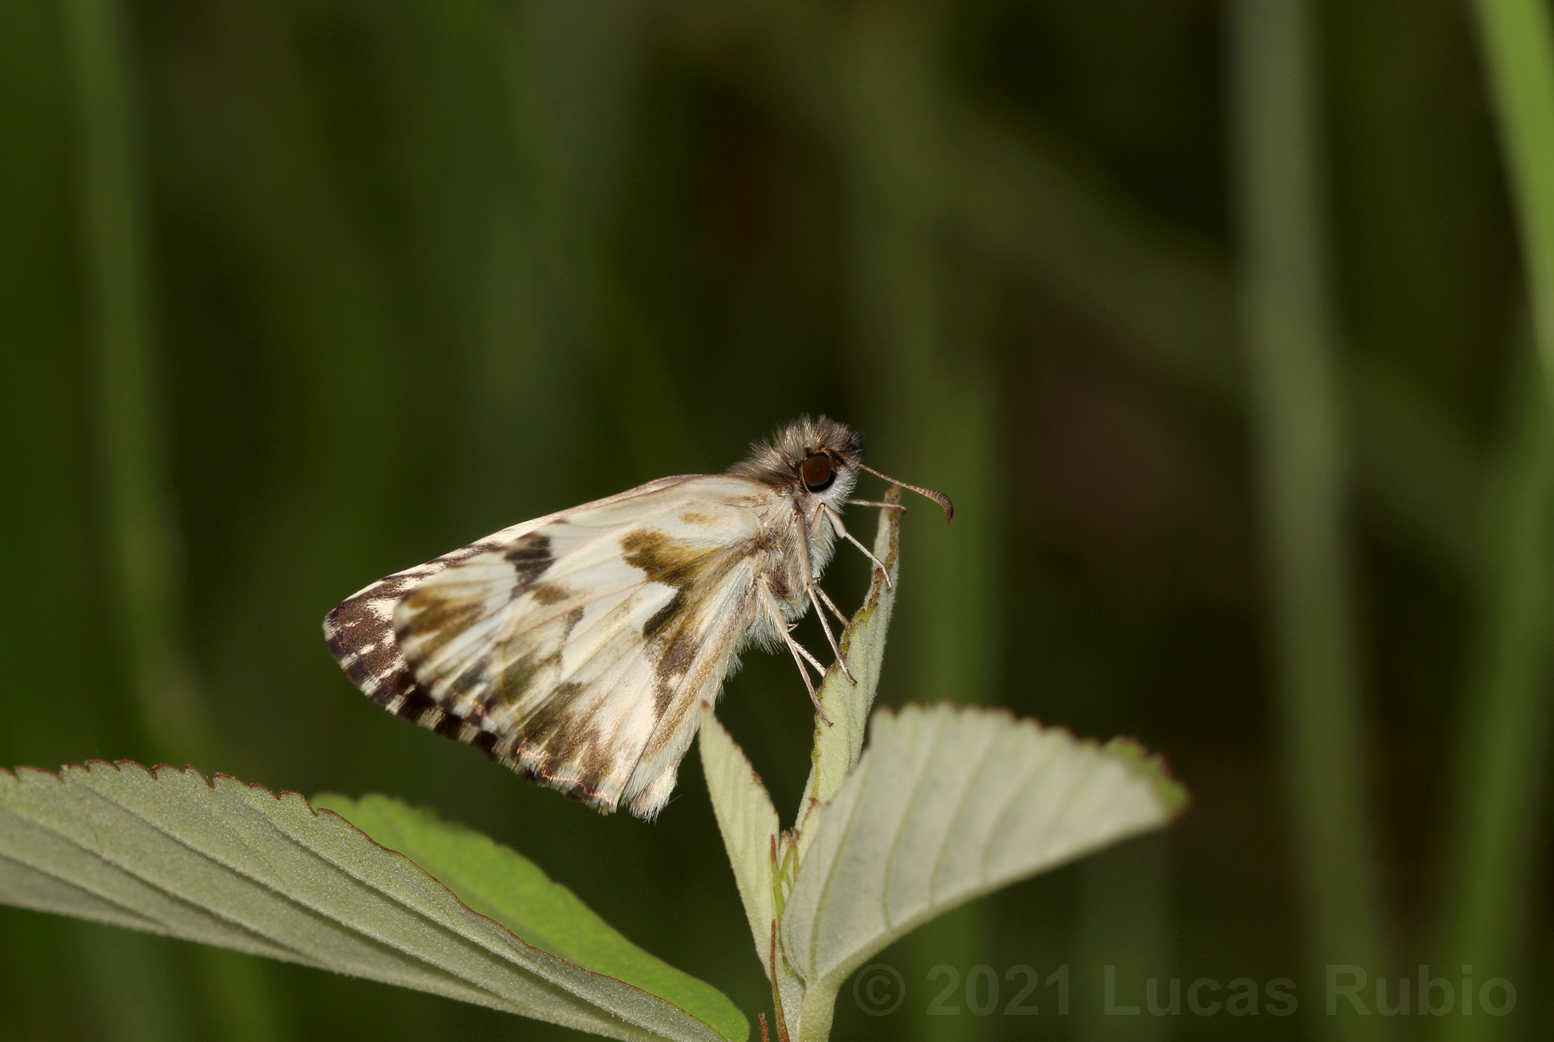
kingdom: Animalia
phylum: Arthropoda
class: Insecta
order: Lepidoptera
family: Hesperiidae
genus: Heliopetes
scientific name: Heliopetes omrina
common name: Stained white-skipper
